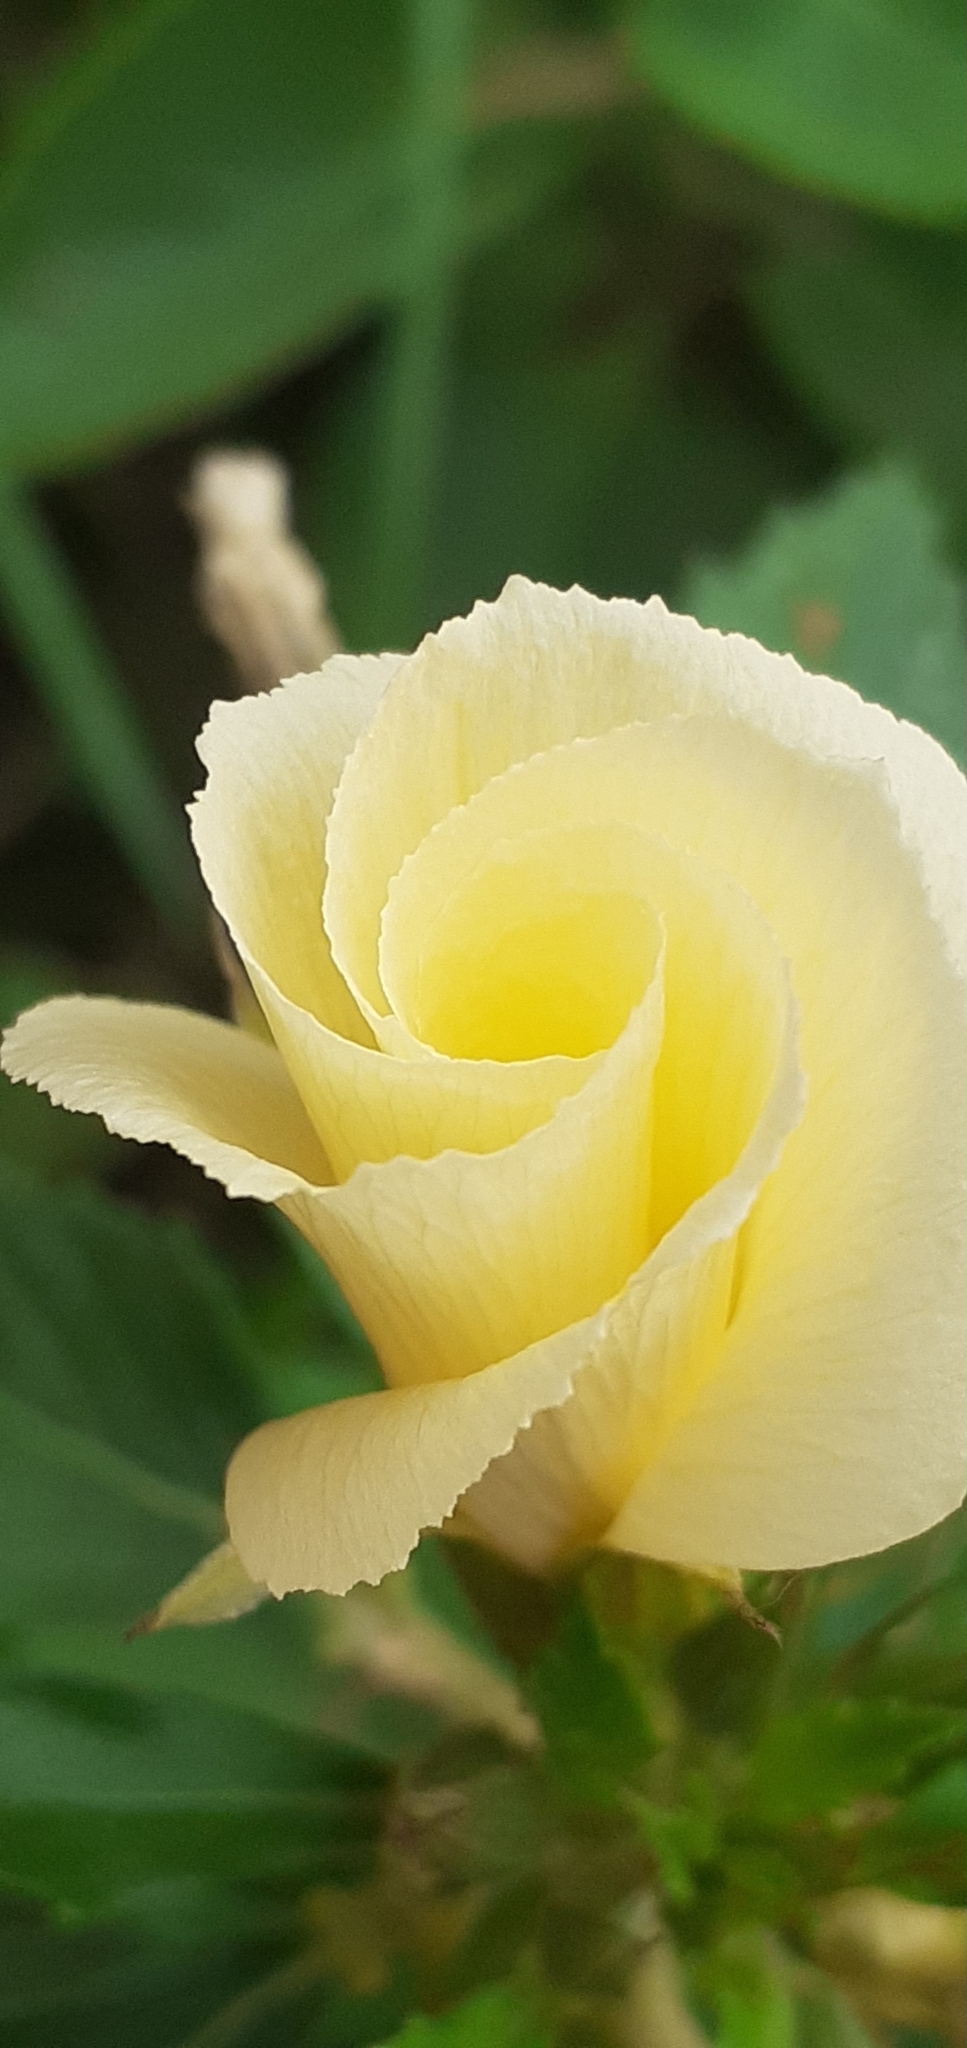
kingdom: Plantae
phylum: Tracheophyta
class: Magnoliopsida
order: Malpighiales
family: Turneraceae
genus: Turnera
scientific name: Turnera subulata
